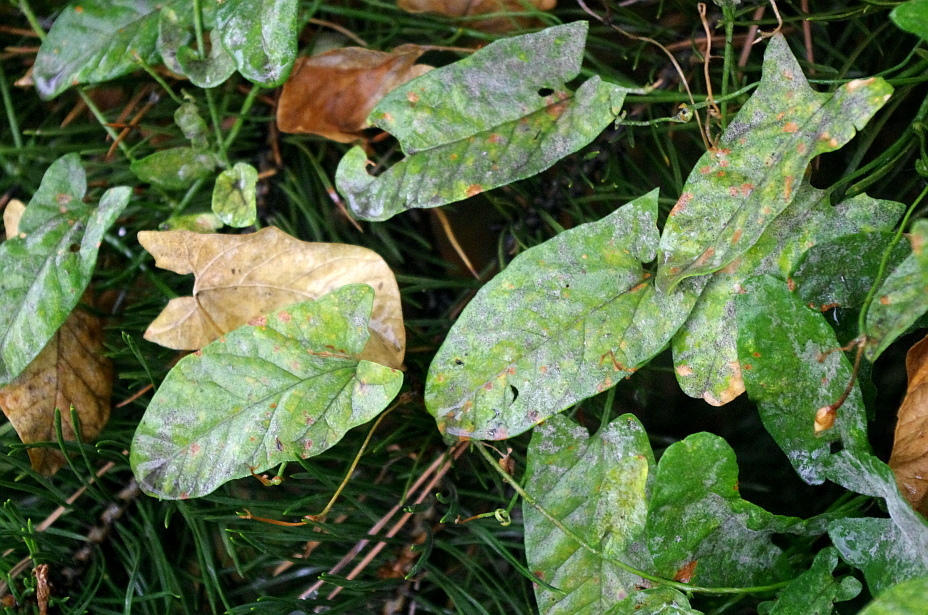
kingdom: Plantae
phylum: Tracheophyta
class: Magnoliopsida
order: Solanales
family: Convolvulaceae
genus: Convolvulus
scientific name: Convolvulus arvensis
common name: Field bindweed
